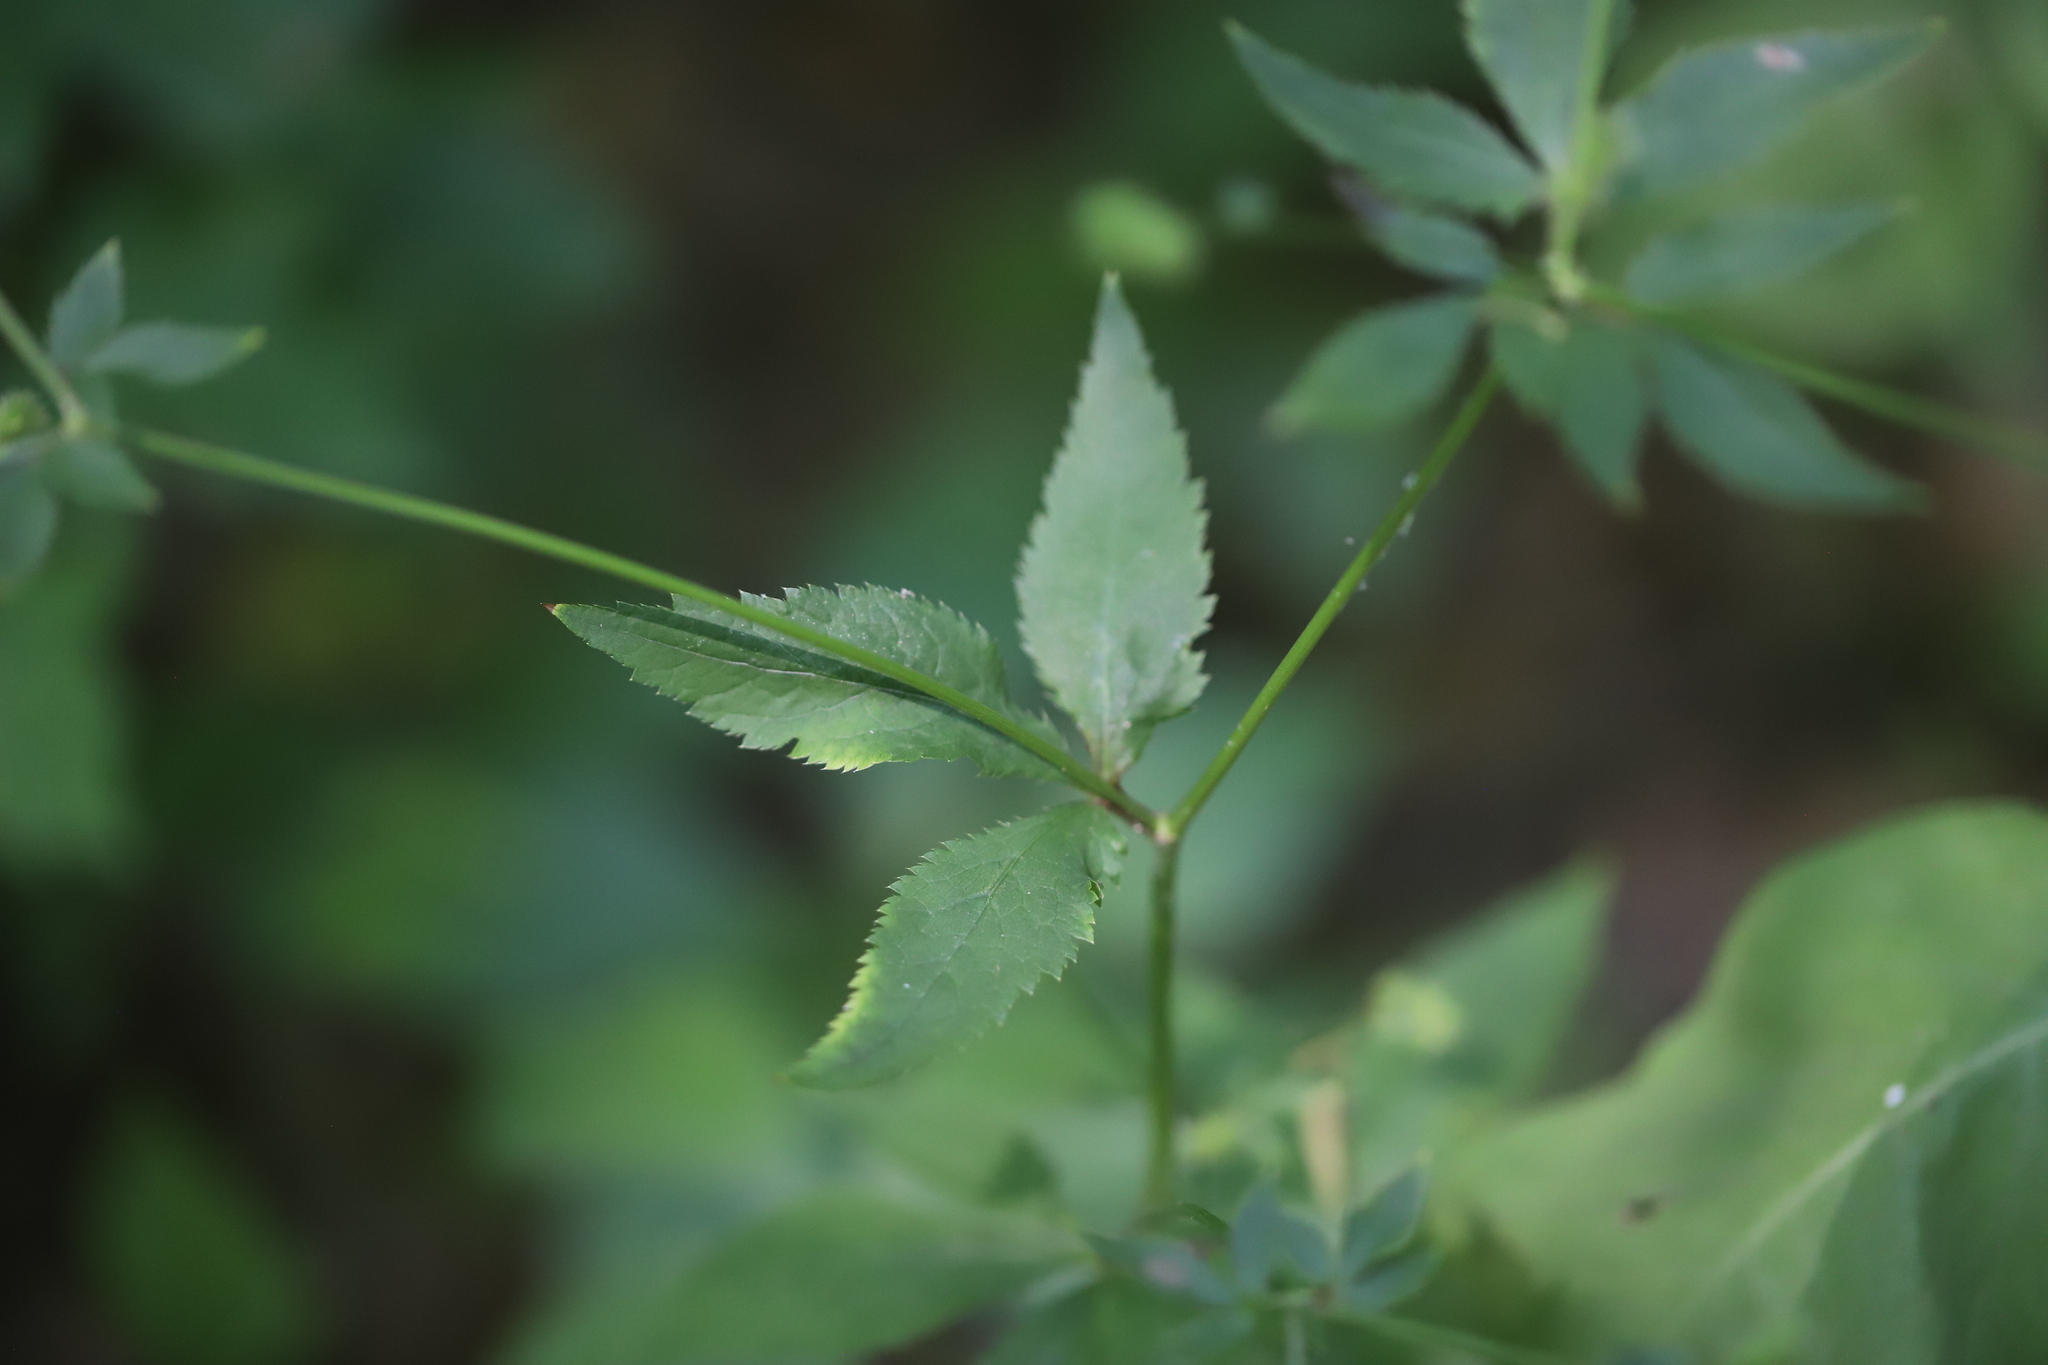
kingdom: Plantae
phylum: Tracheophyta
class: Magnoliopsida
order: Apiales
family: Apiaceae
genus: Sanicula
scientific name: Sanicula canadensis
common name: Canada sanicle
